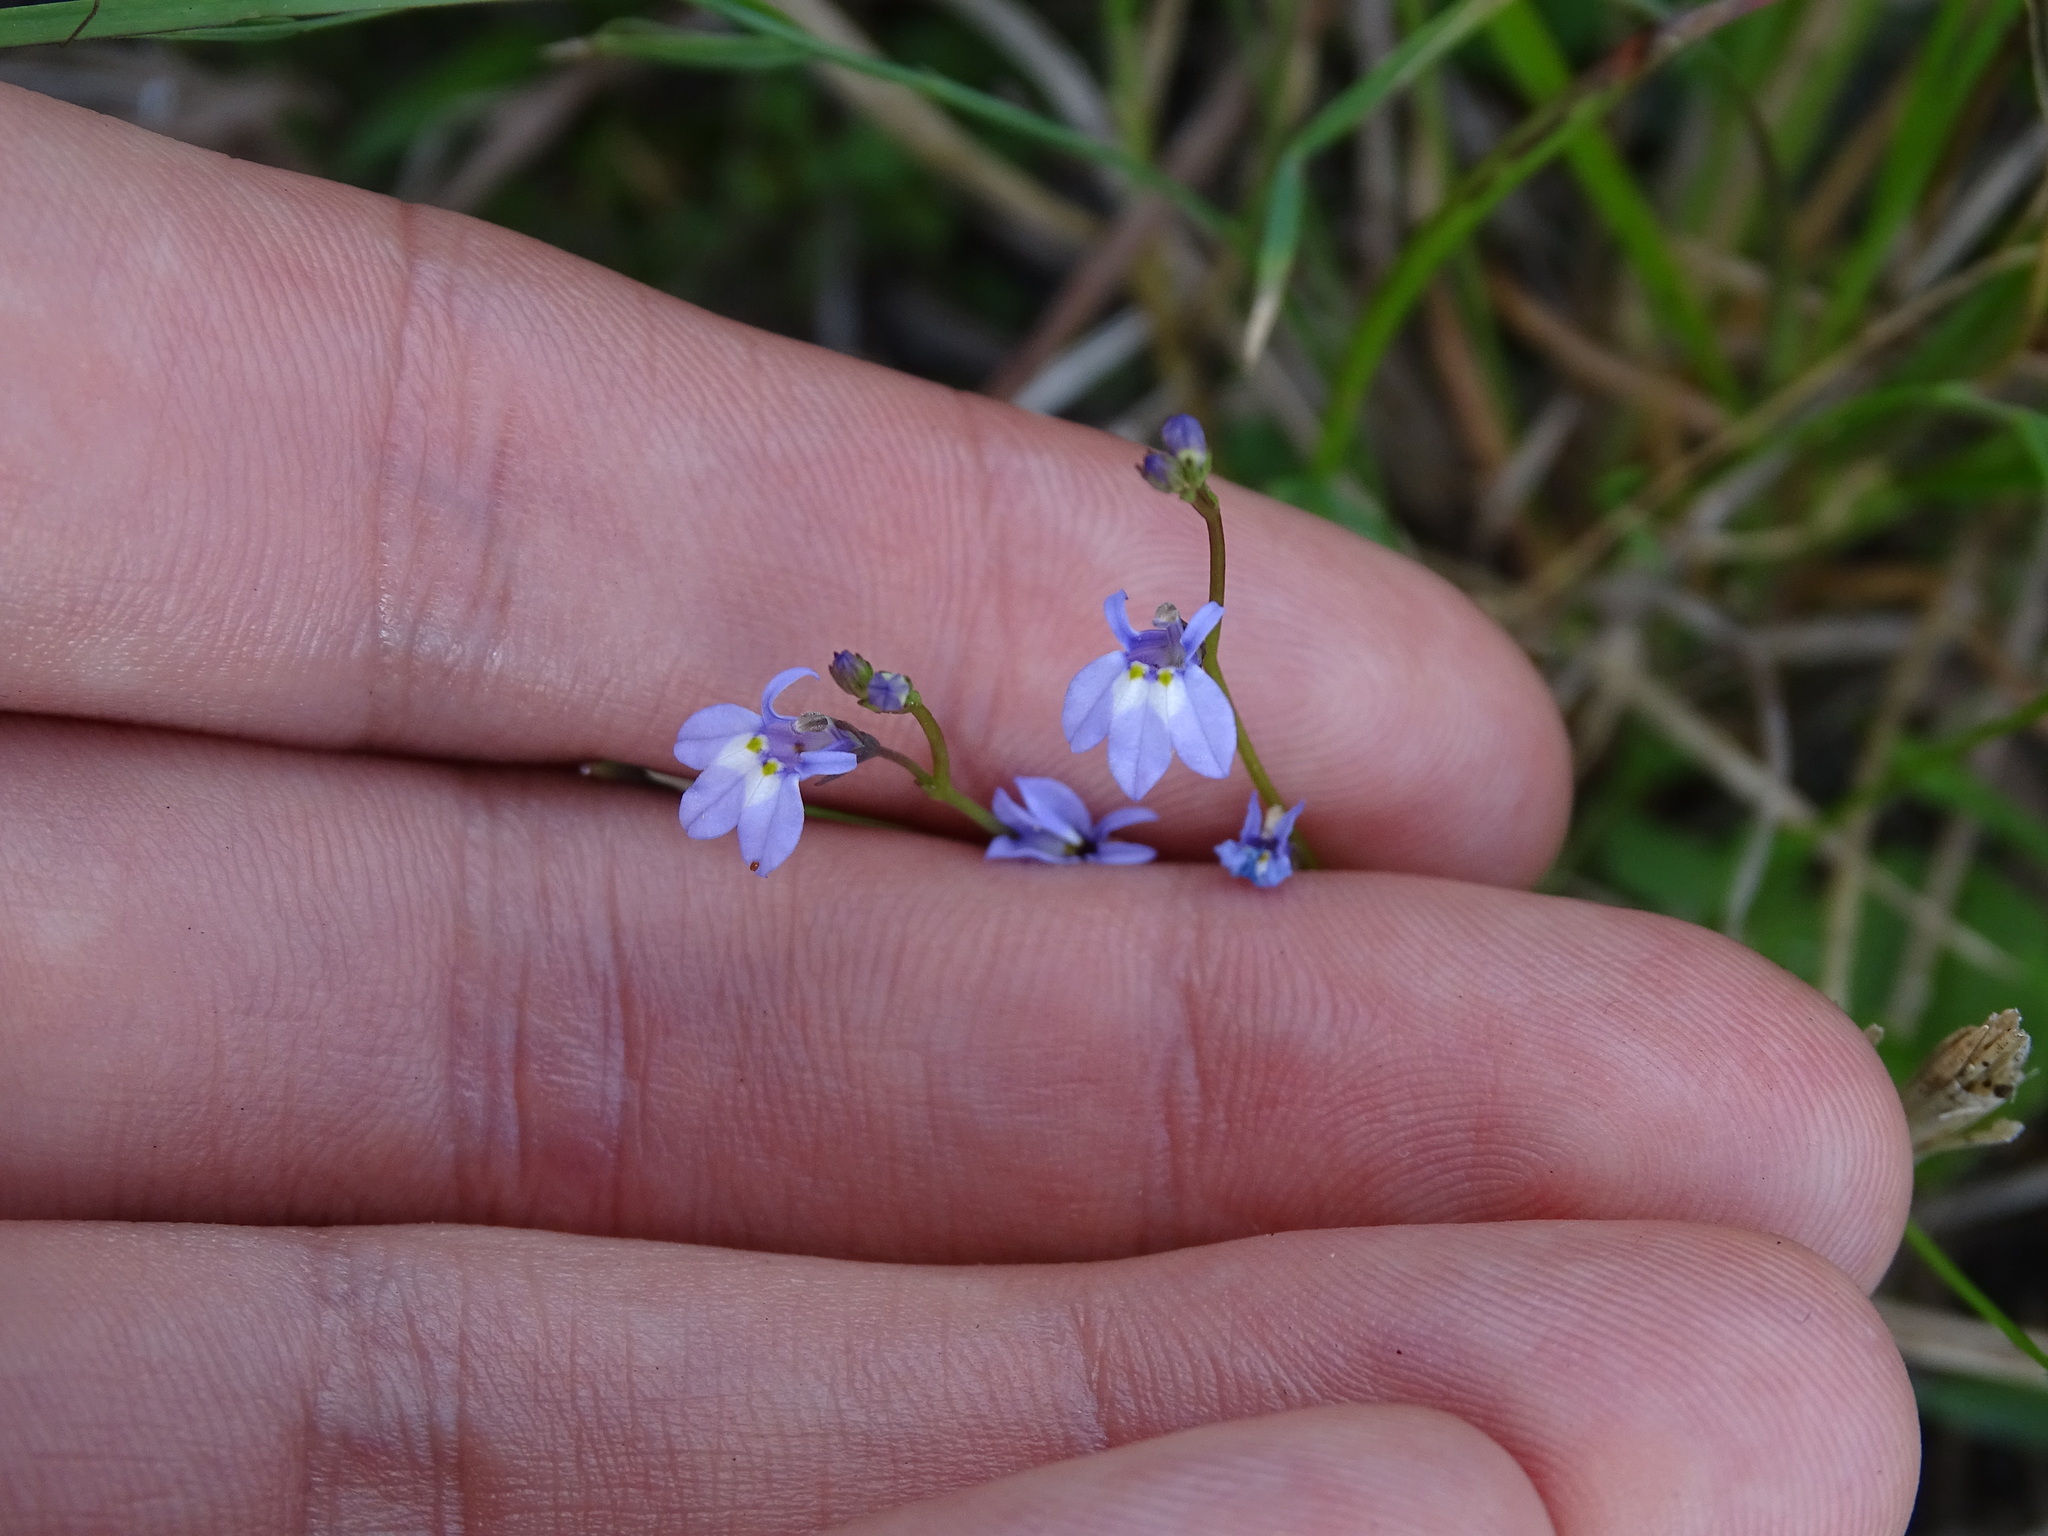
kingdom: Plantae
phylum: Tracheophyta
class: Magnoliopsida
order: Asterales
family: Campanulaceae
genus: Lobelia
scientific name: Lobelia feayana
